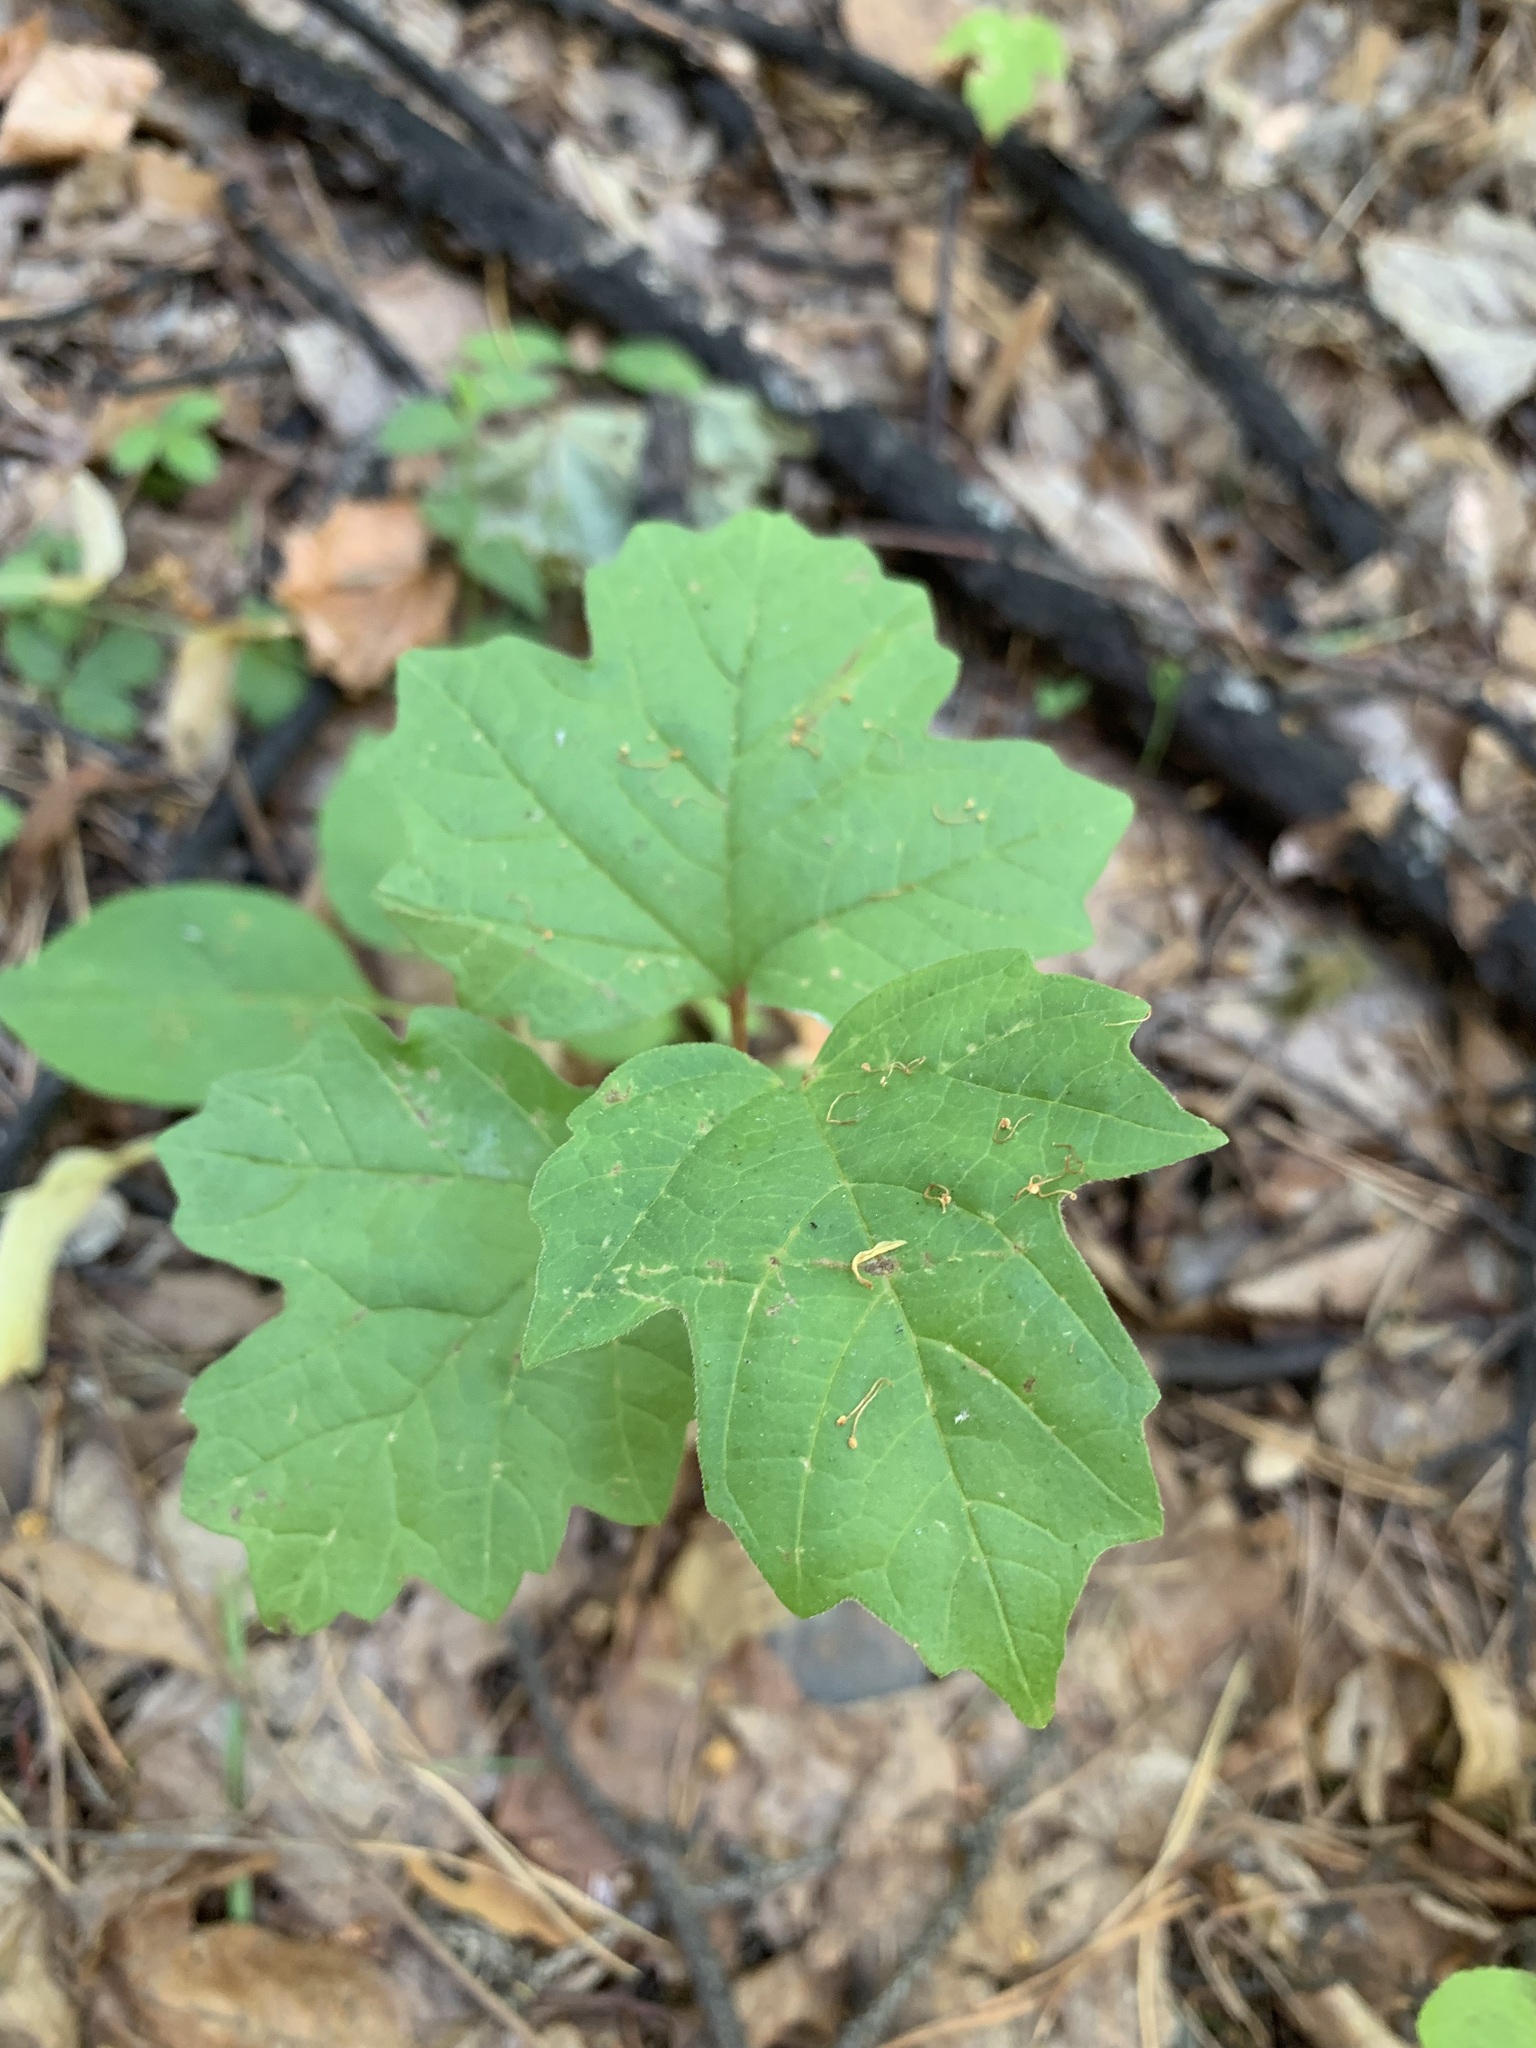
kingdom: Plantae
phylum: Tracheophyta
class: Magnoliopsida
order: Dipsacales
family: Viburnaceae
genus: Viburnum
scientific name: Viburnum opulus
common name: Guelder-rose
